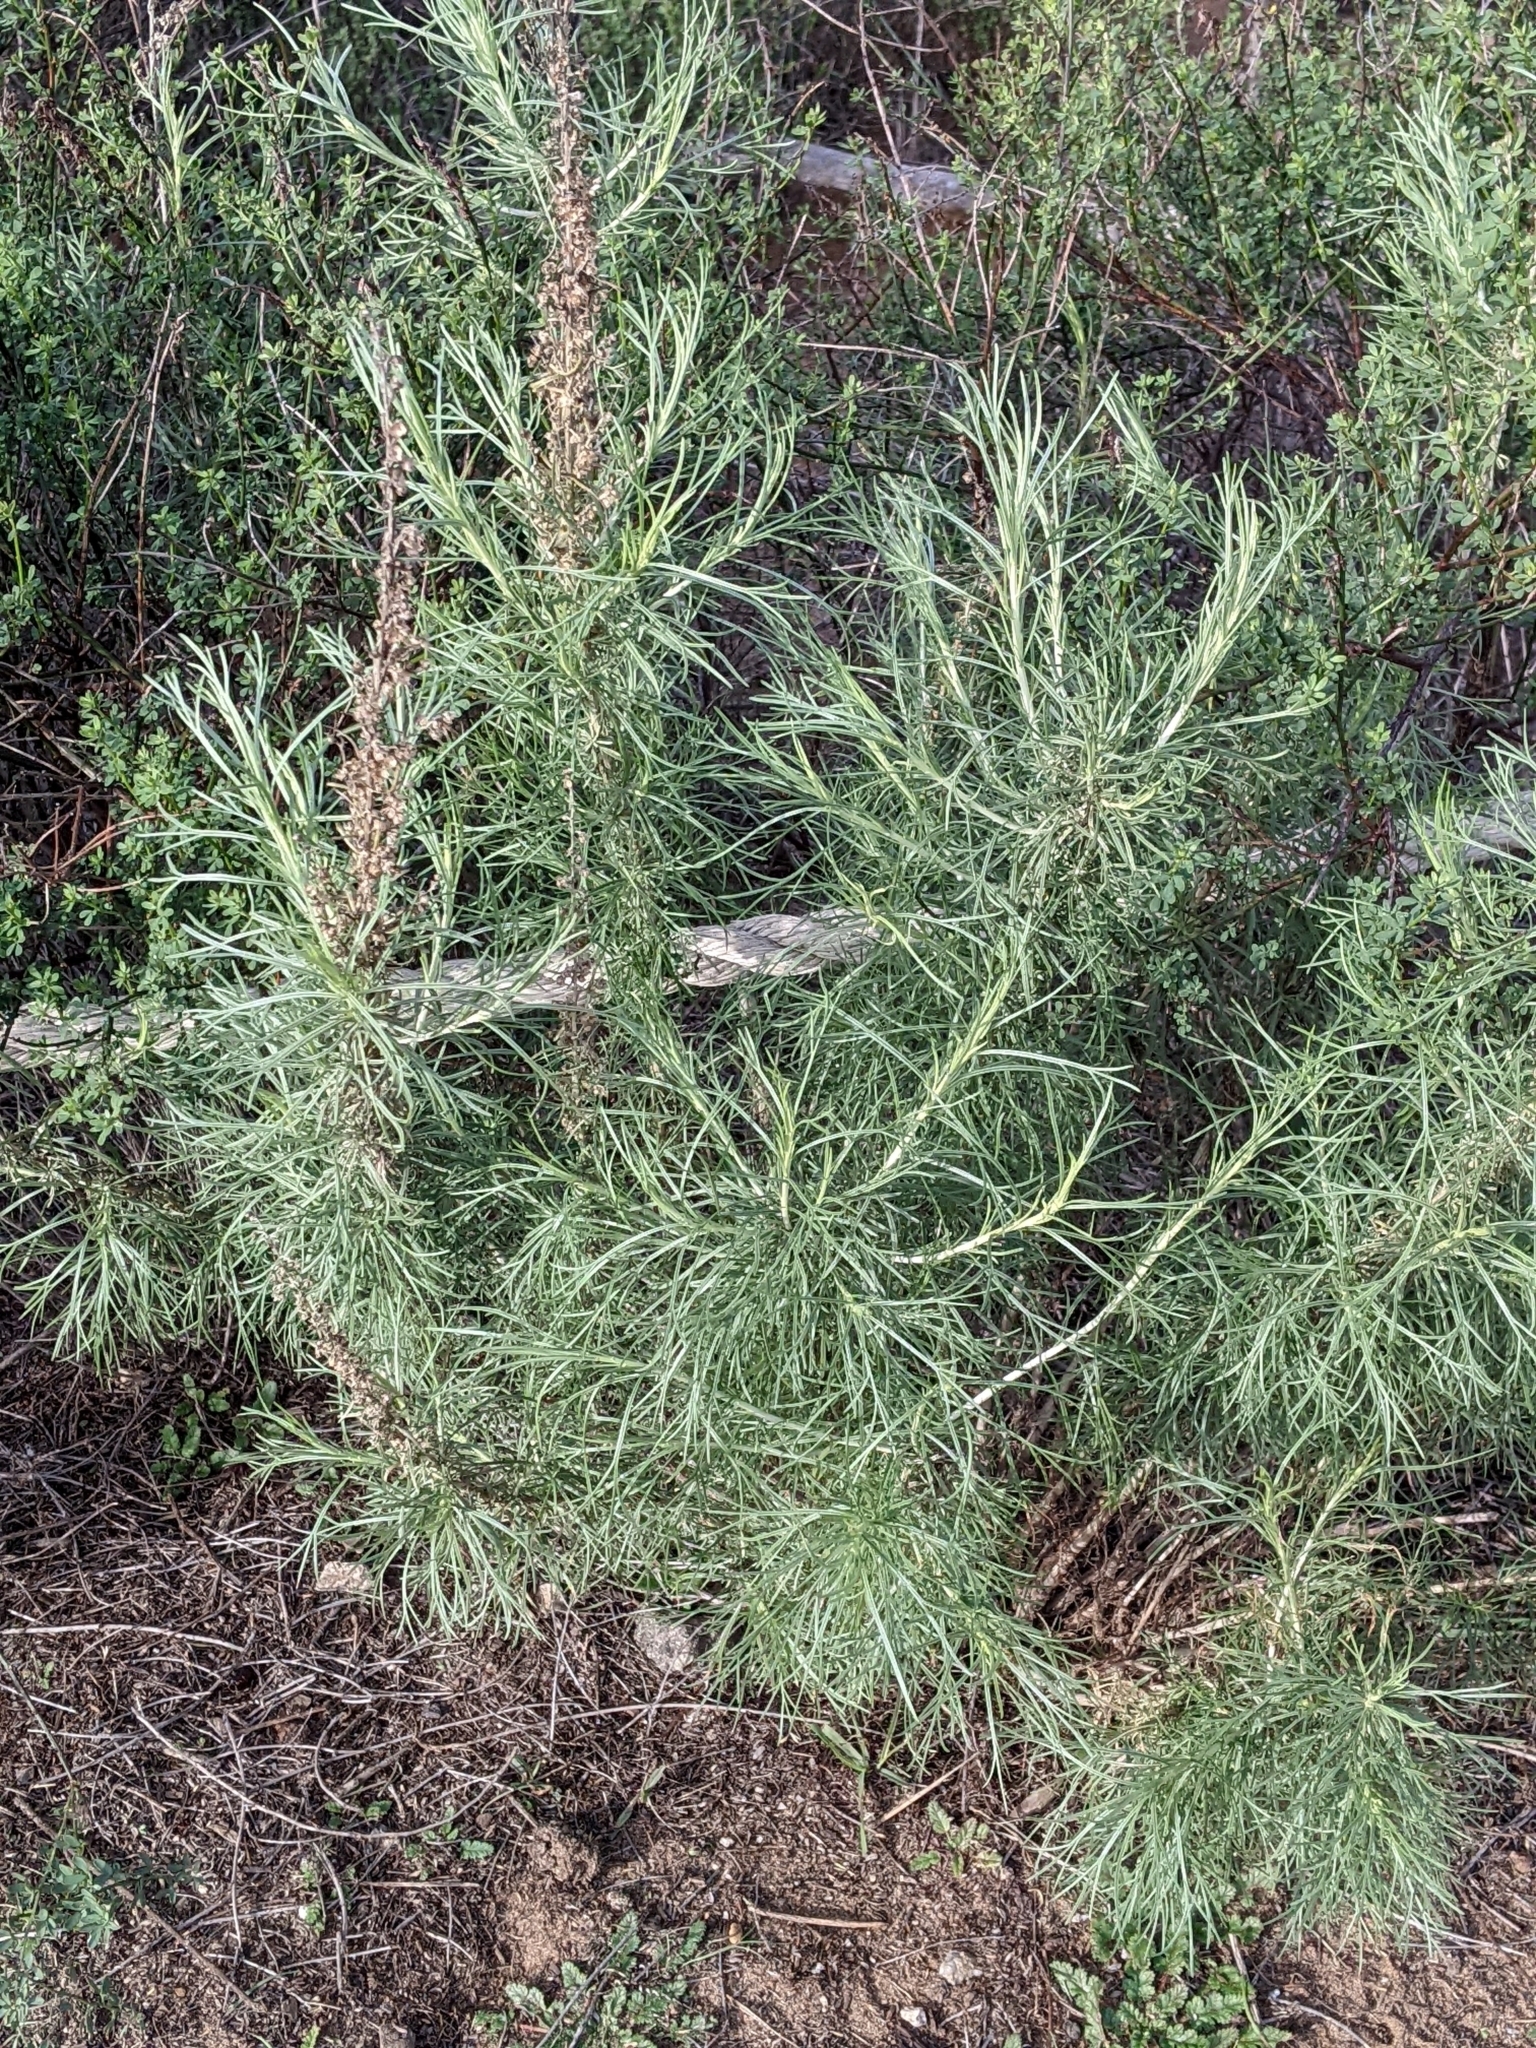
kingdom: Plantae
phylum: Tracheophyta
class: Magnoliopsida
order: Asterales
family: Asteraceae
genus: Artemisia
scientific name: Artemisia californica
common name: California sagebrush
